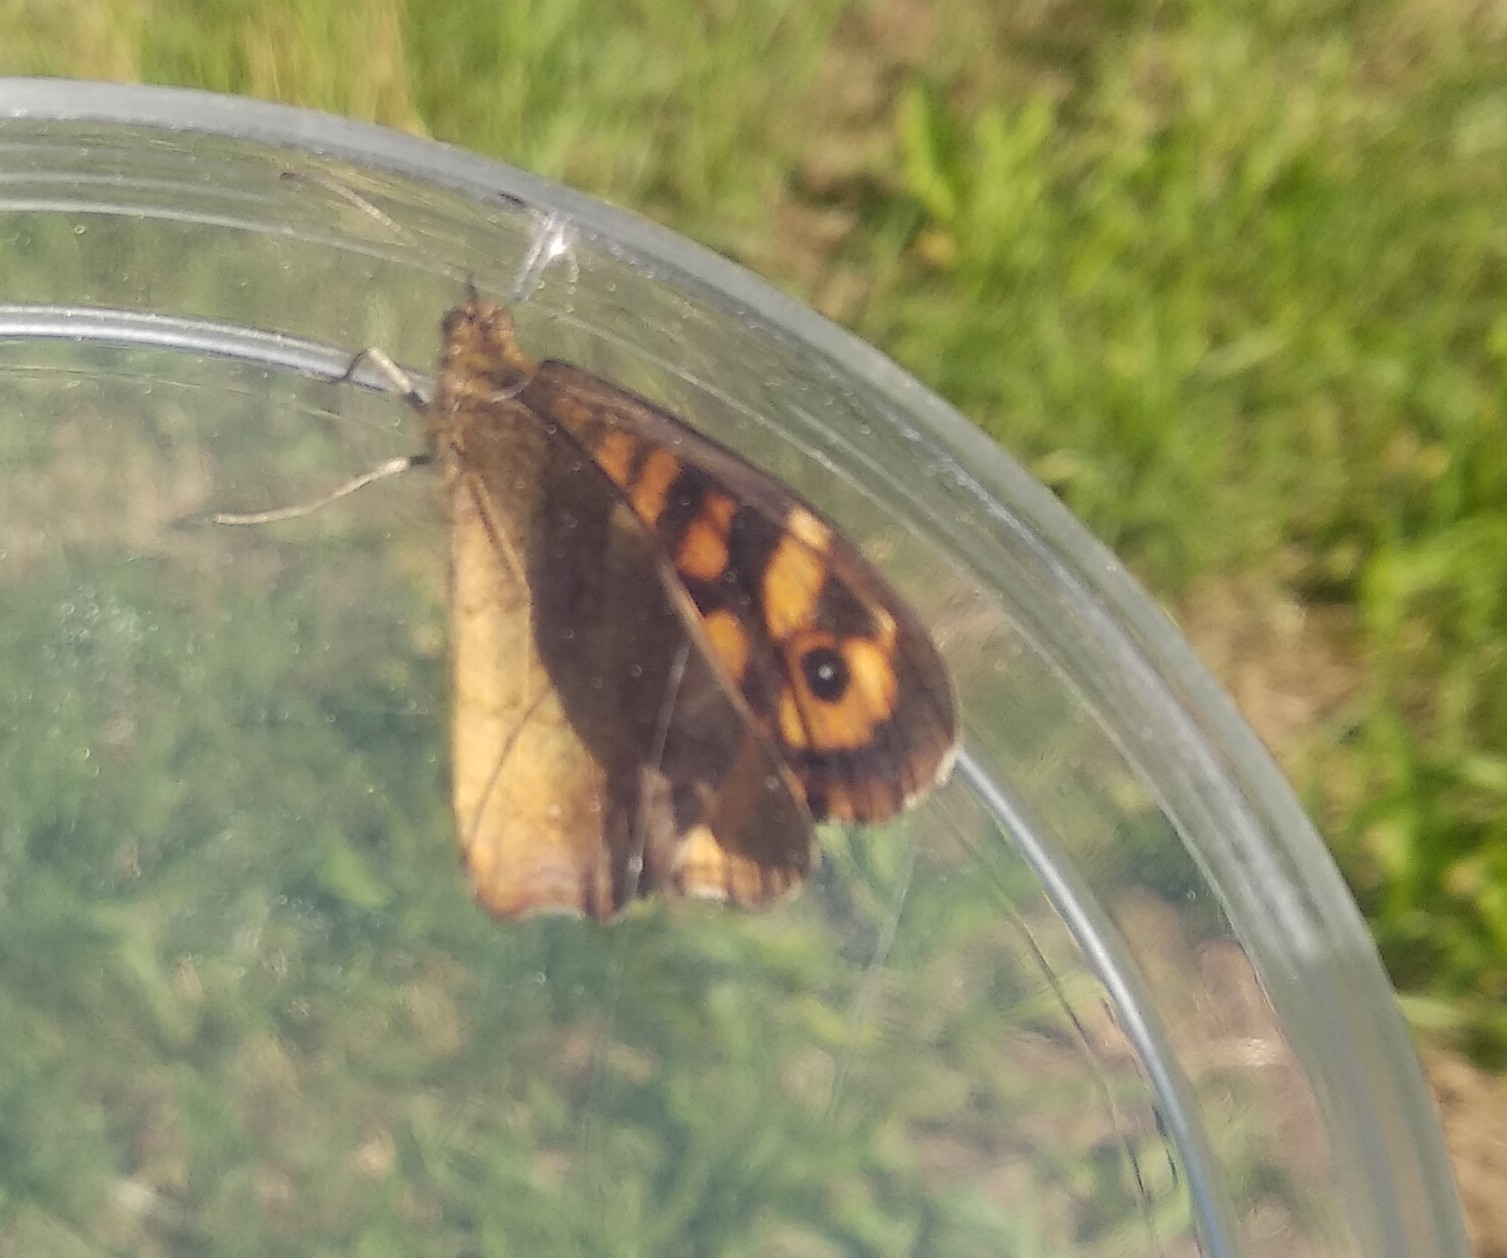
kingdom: Animalia
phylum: Arthropoda
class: Insecta
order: Lepidoptera
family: Nymphalidae
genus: Pararge
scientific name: Pararge aegeria
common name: Speckled wood
